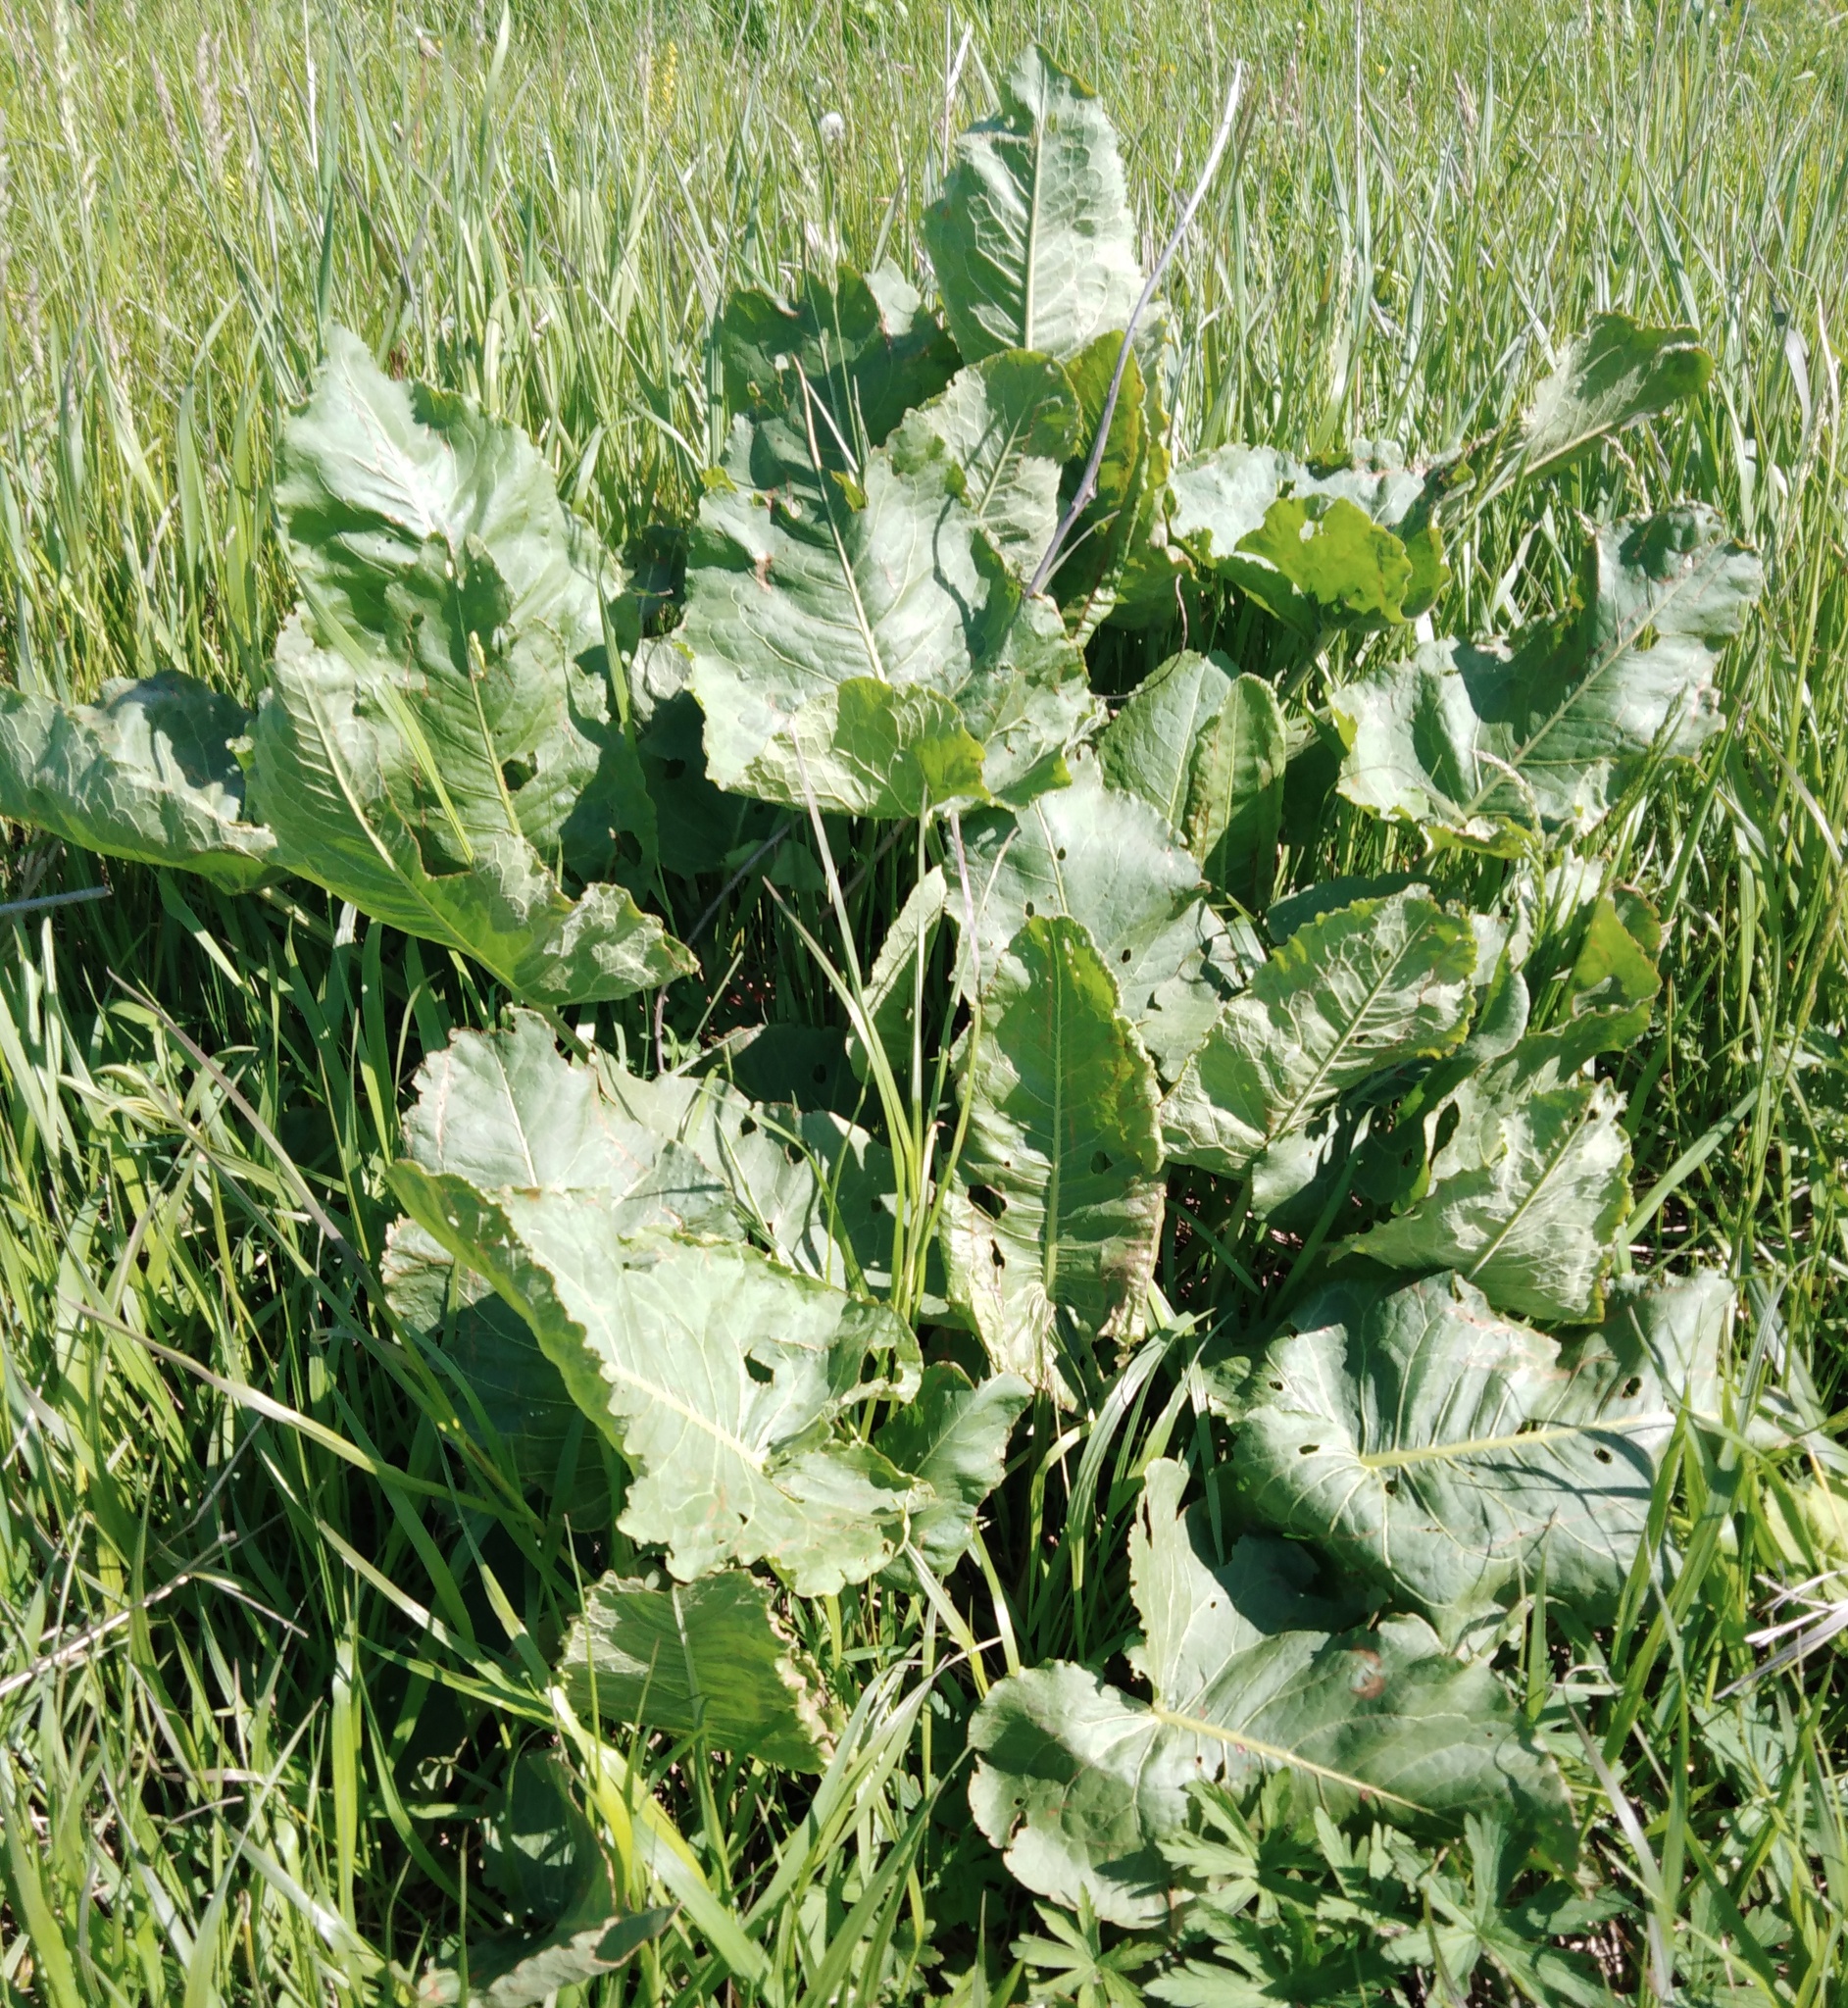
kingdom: Plantae
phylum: Tracheophyta
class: Magnoliopsida
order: Caryophyllales
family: Polygonaceae
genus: Rumex
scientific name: Rumex confertus
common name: Russian dock
